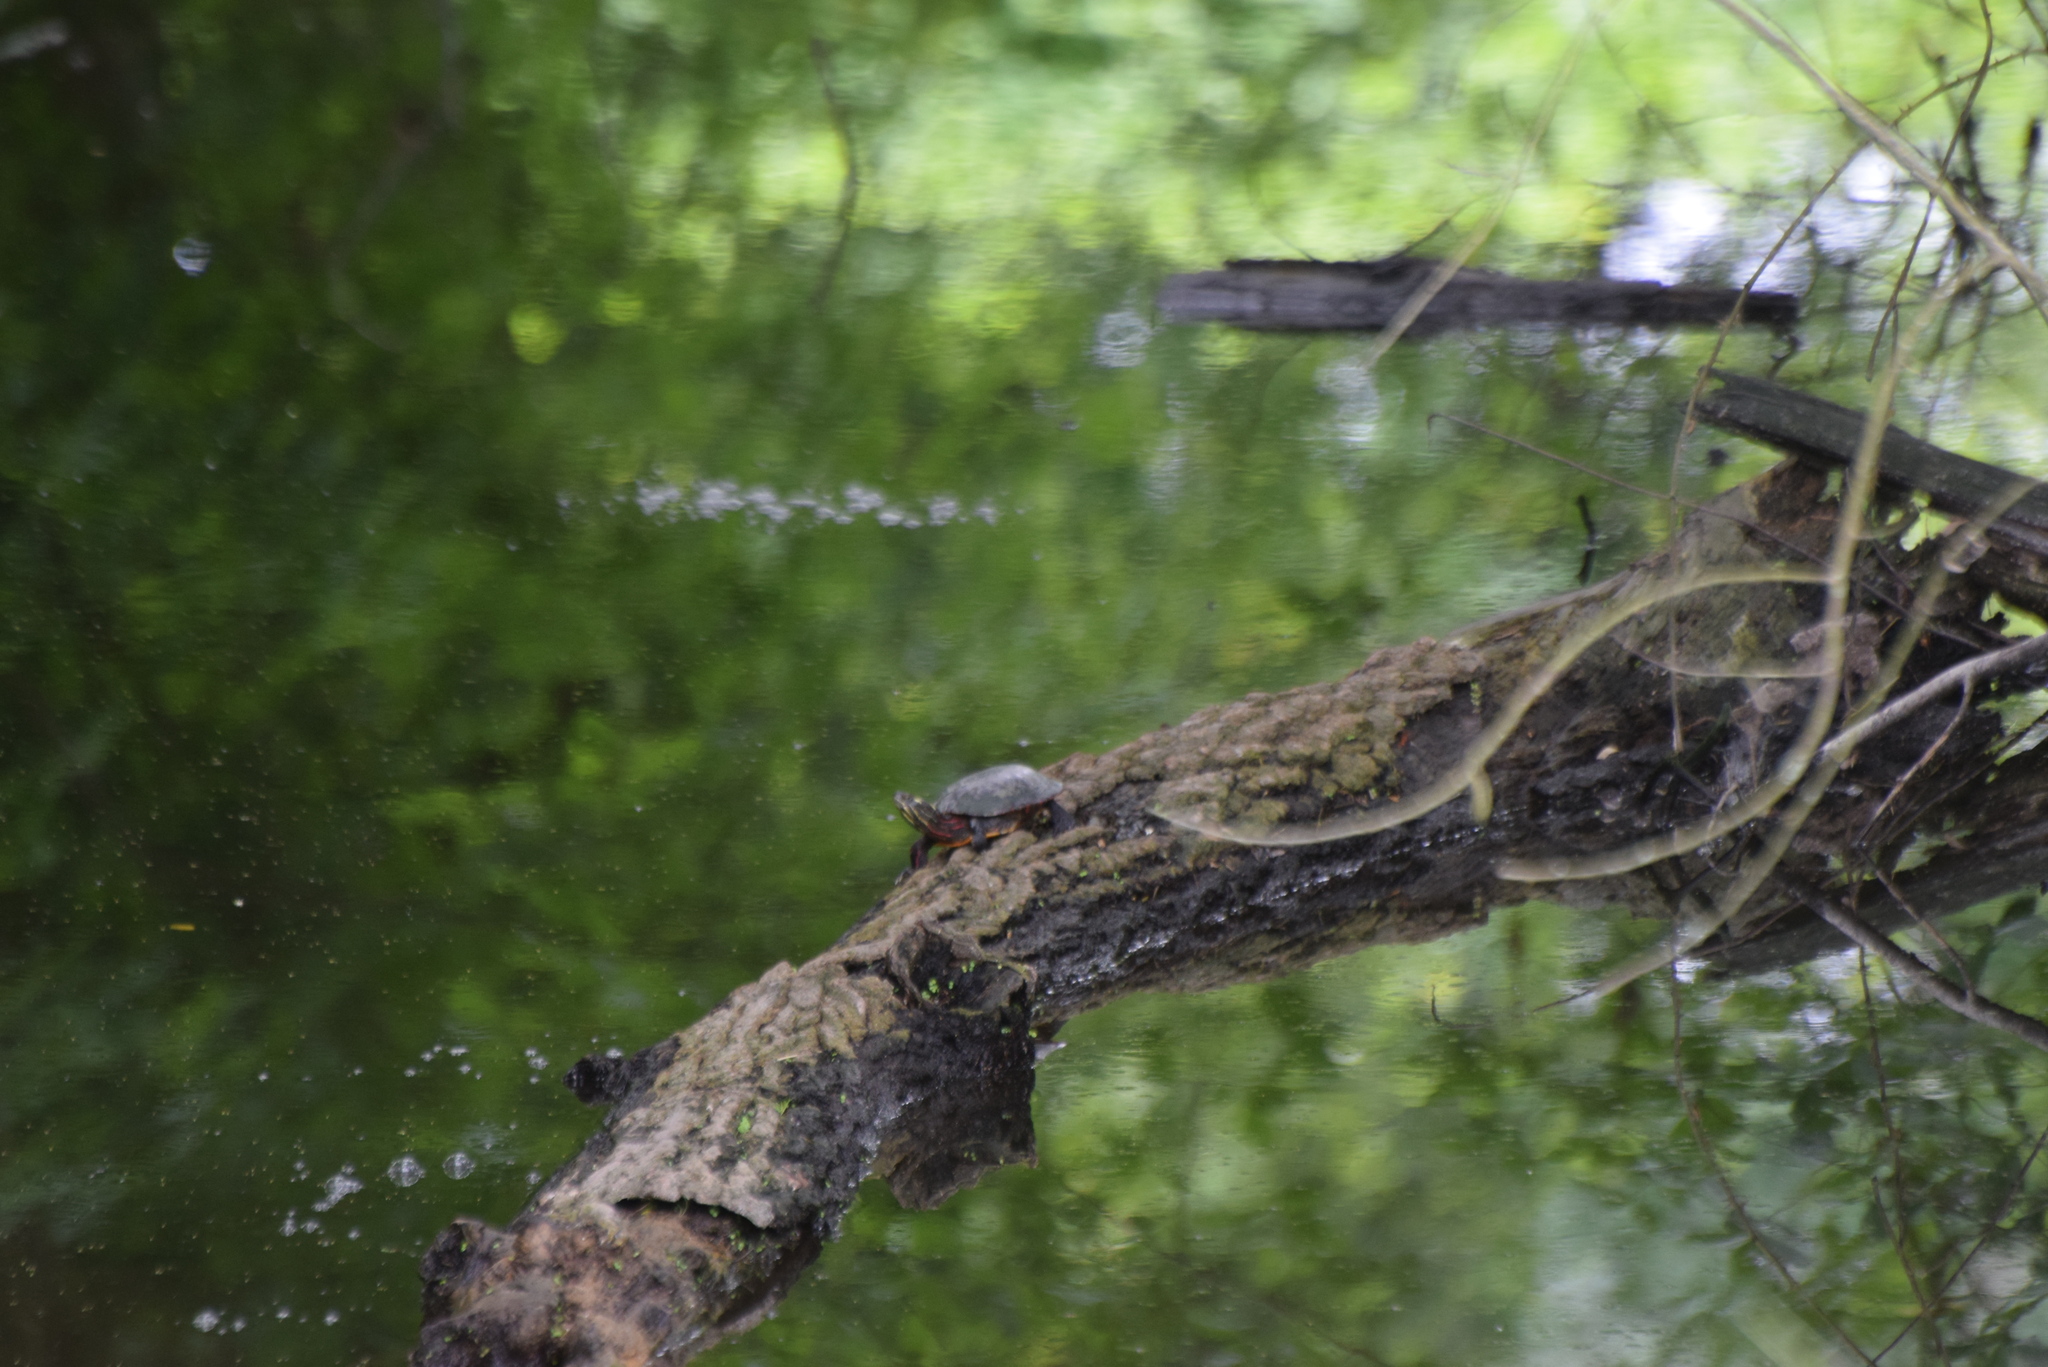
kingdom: Animalia
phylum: Chordata
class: Testudines
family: Emydidae
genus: Chrysemys
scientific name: Chrysemys picta
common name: Painted turtle
